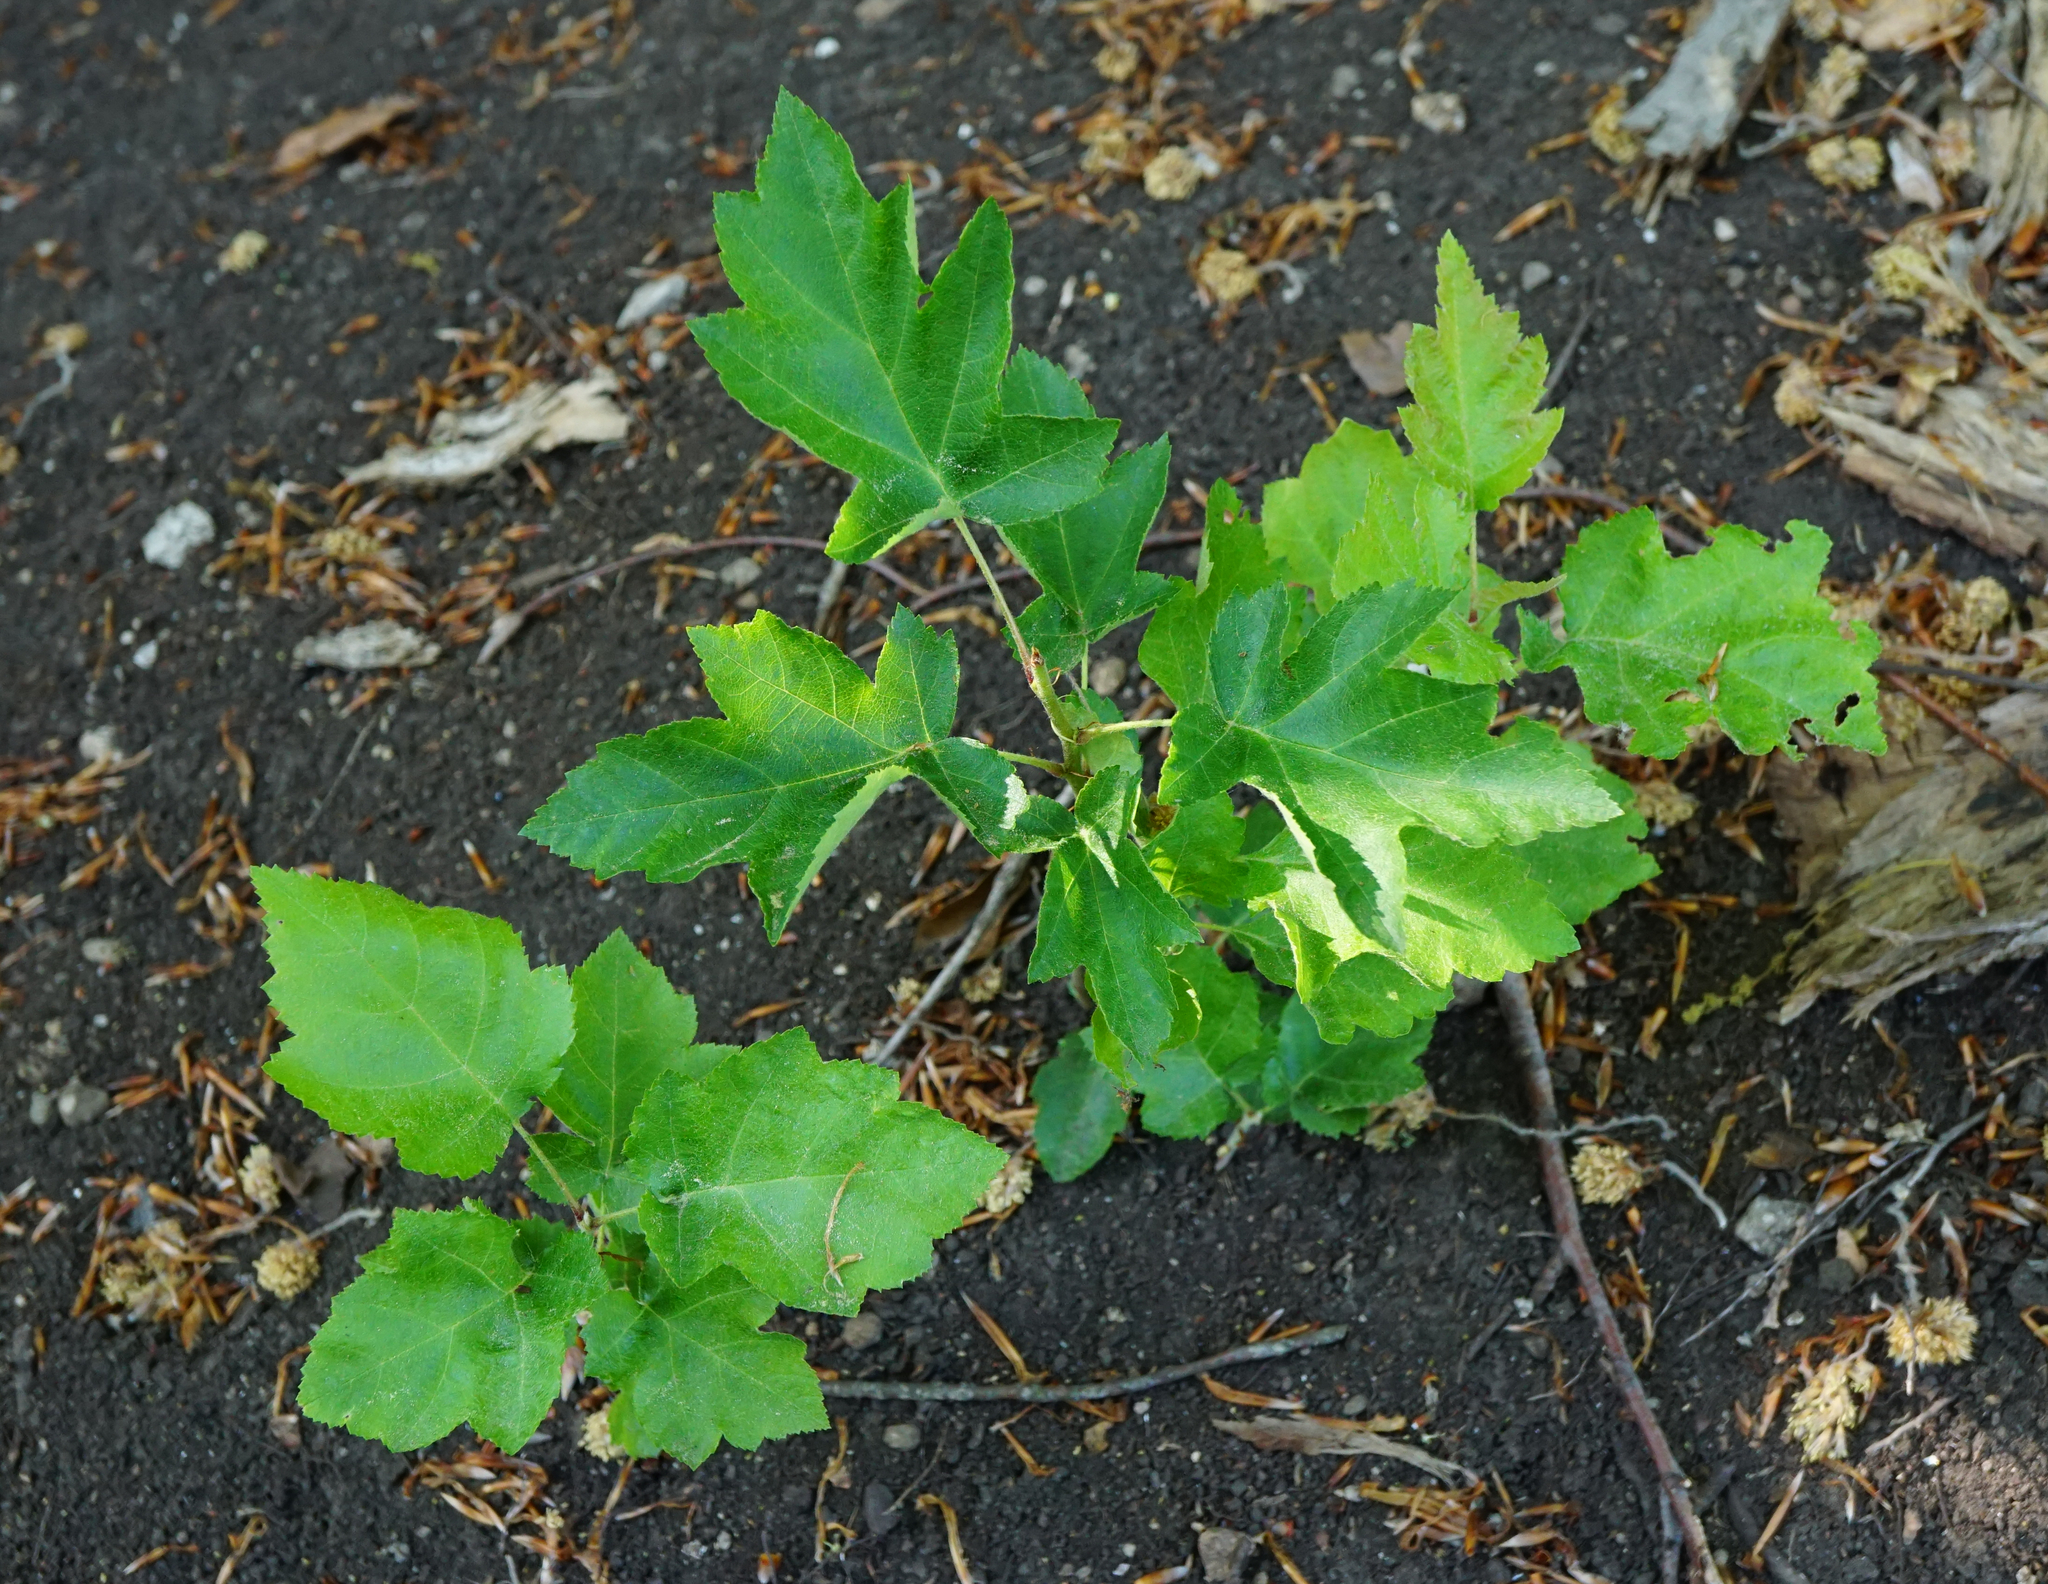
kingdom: Plantae
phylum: Tracheophyta
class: Magnoliopsida
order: Rosales
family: Rosaceae
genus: Torminalis
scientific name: Torminalis glaberrima
